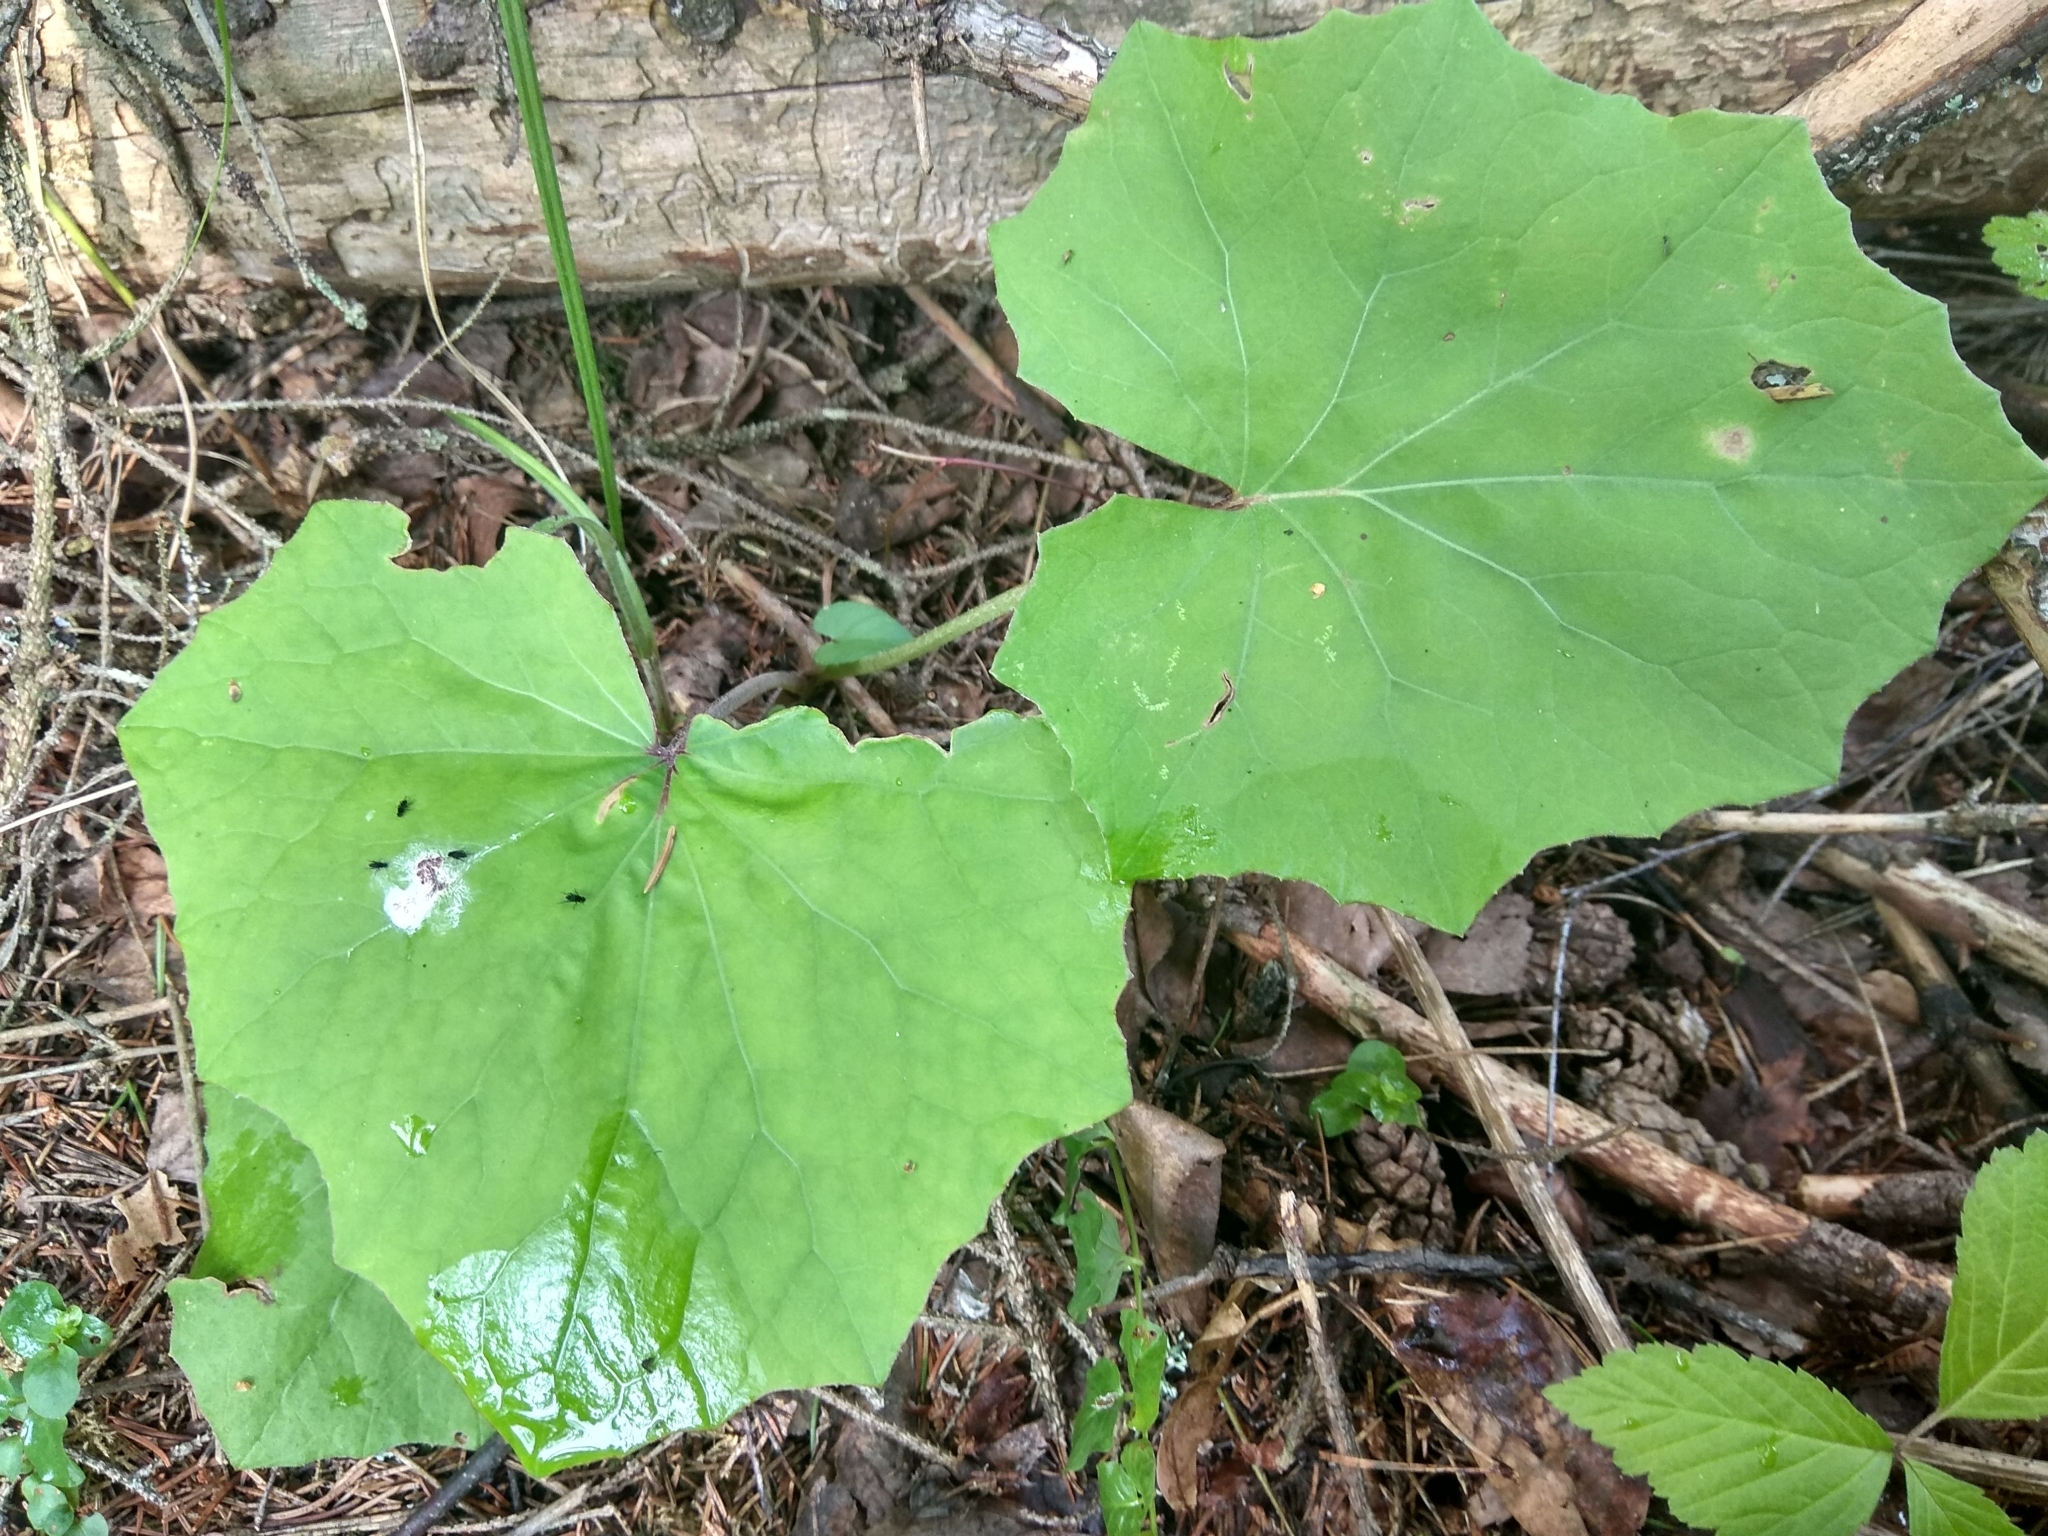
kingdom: Plantae
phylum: Tracheophyta
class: Magnoliopsida
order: Asterales
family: Asteraceae
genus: Tussilago
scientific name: Tussilago farfara
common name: Coltsfoot
